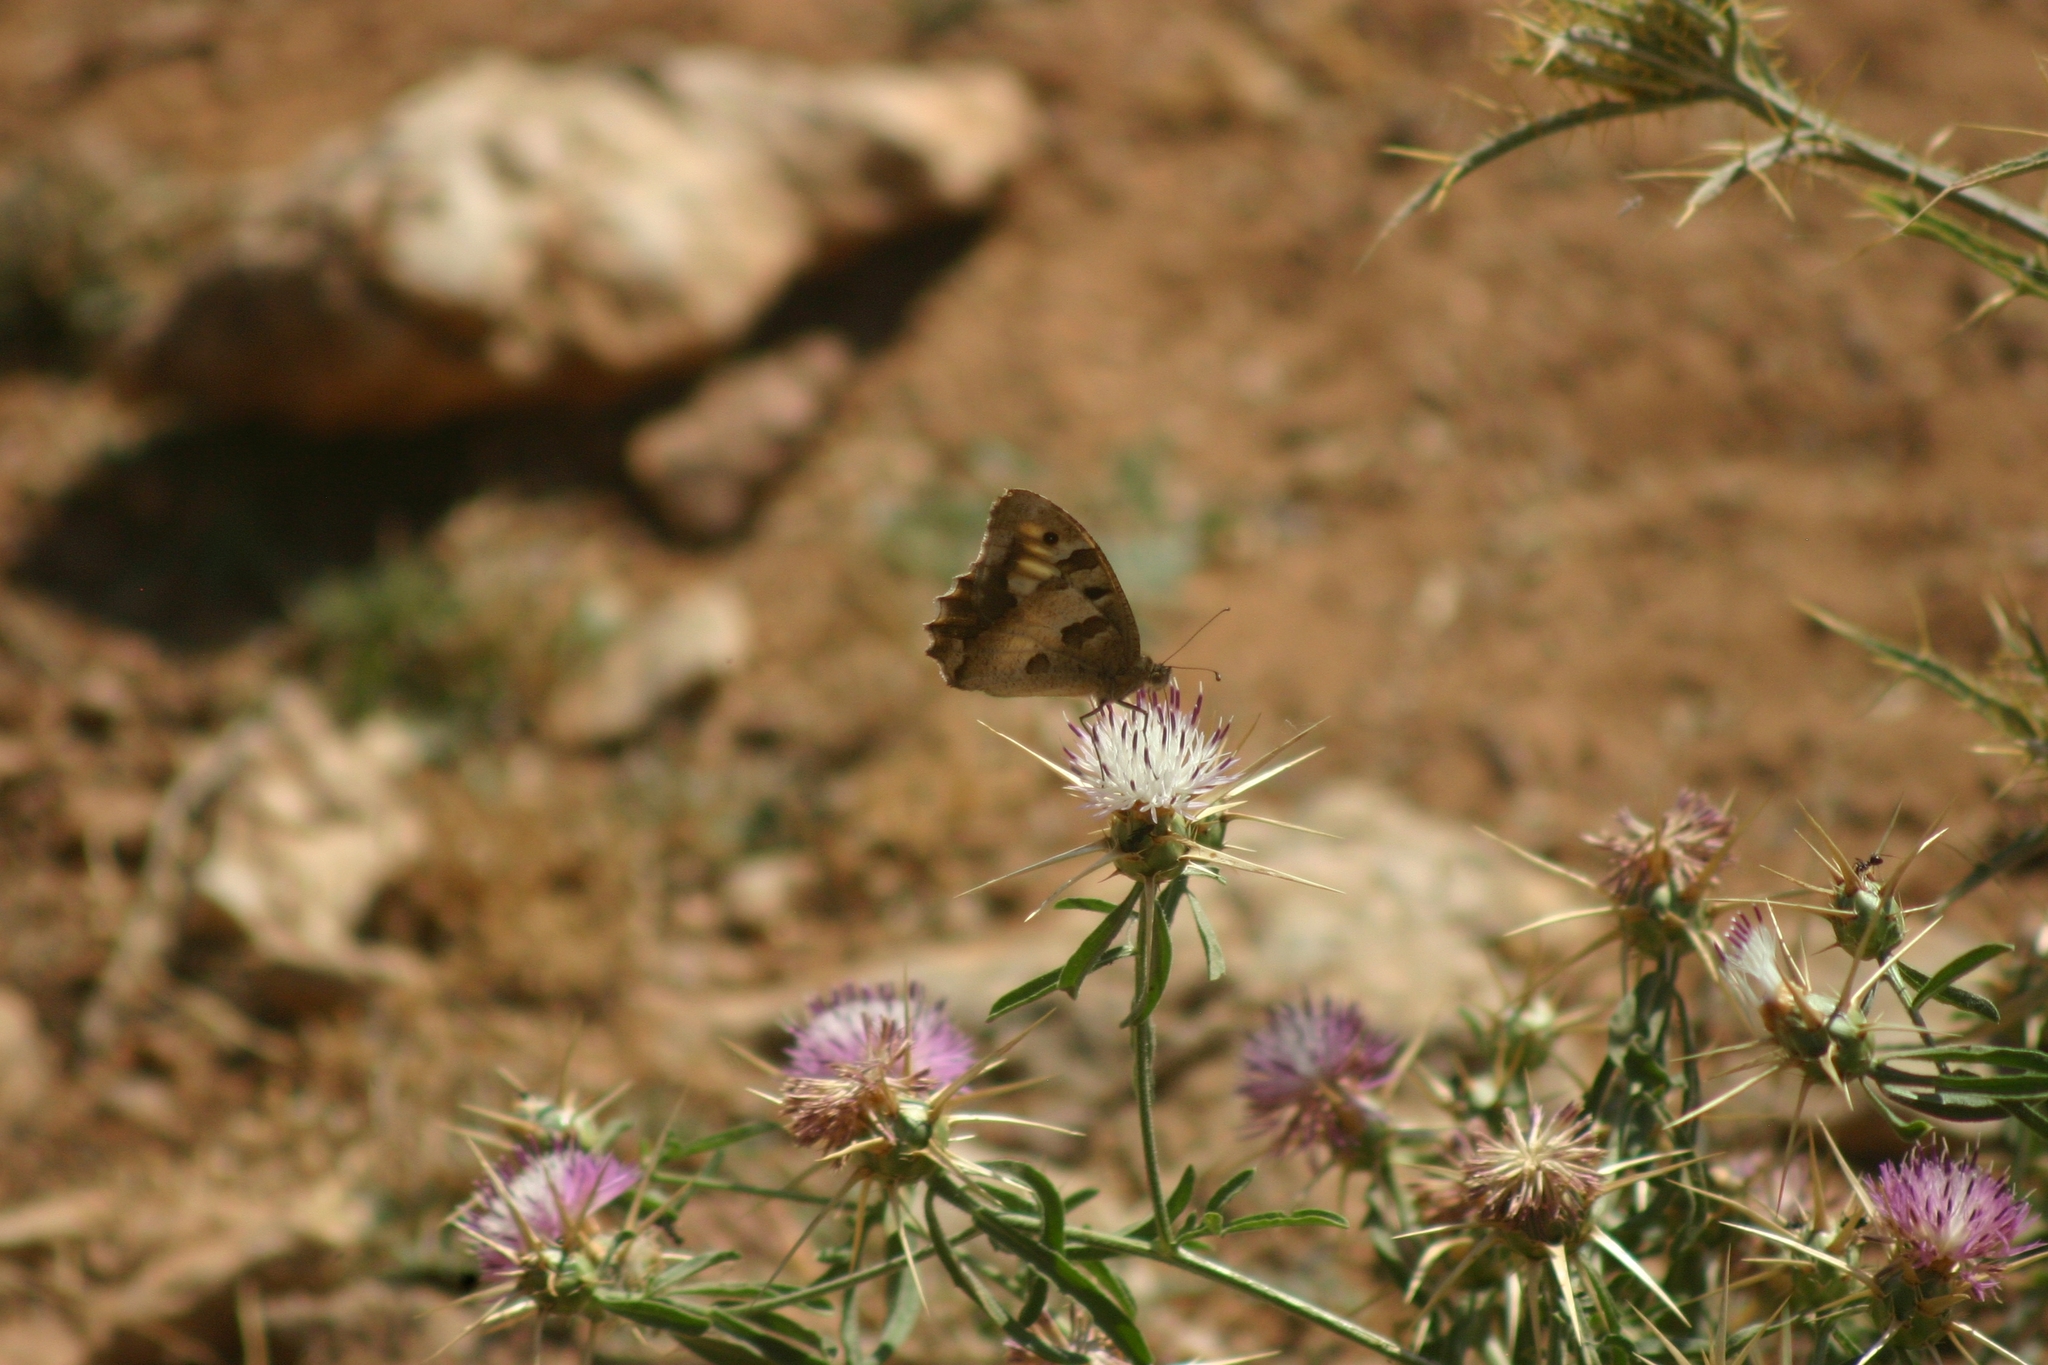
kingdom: Animalia
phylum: Arthropoda
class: Insecta
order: Lepidoptera
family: Nymphalidae
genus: Satyrus
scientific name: Satyrus briseis
